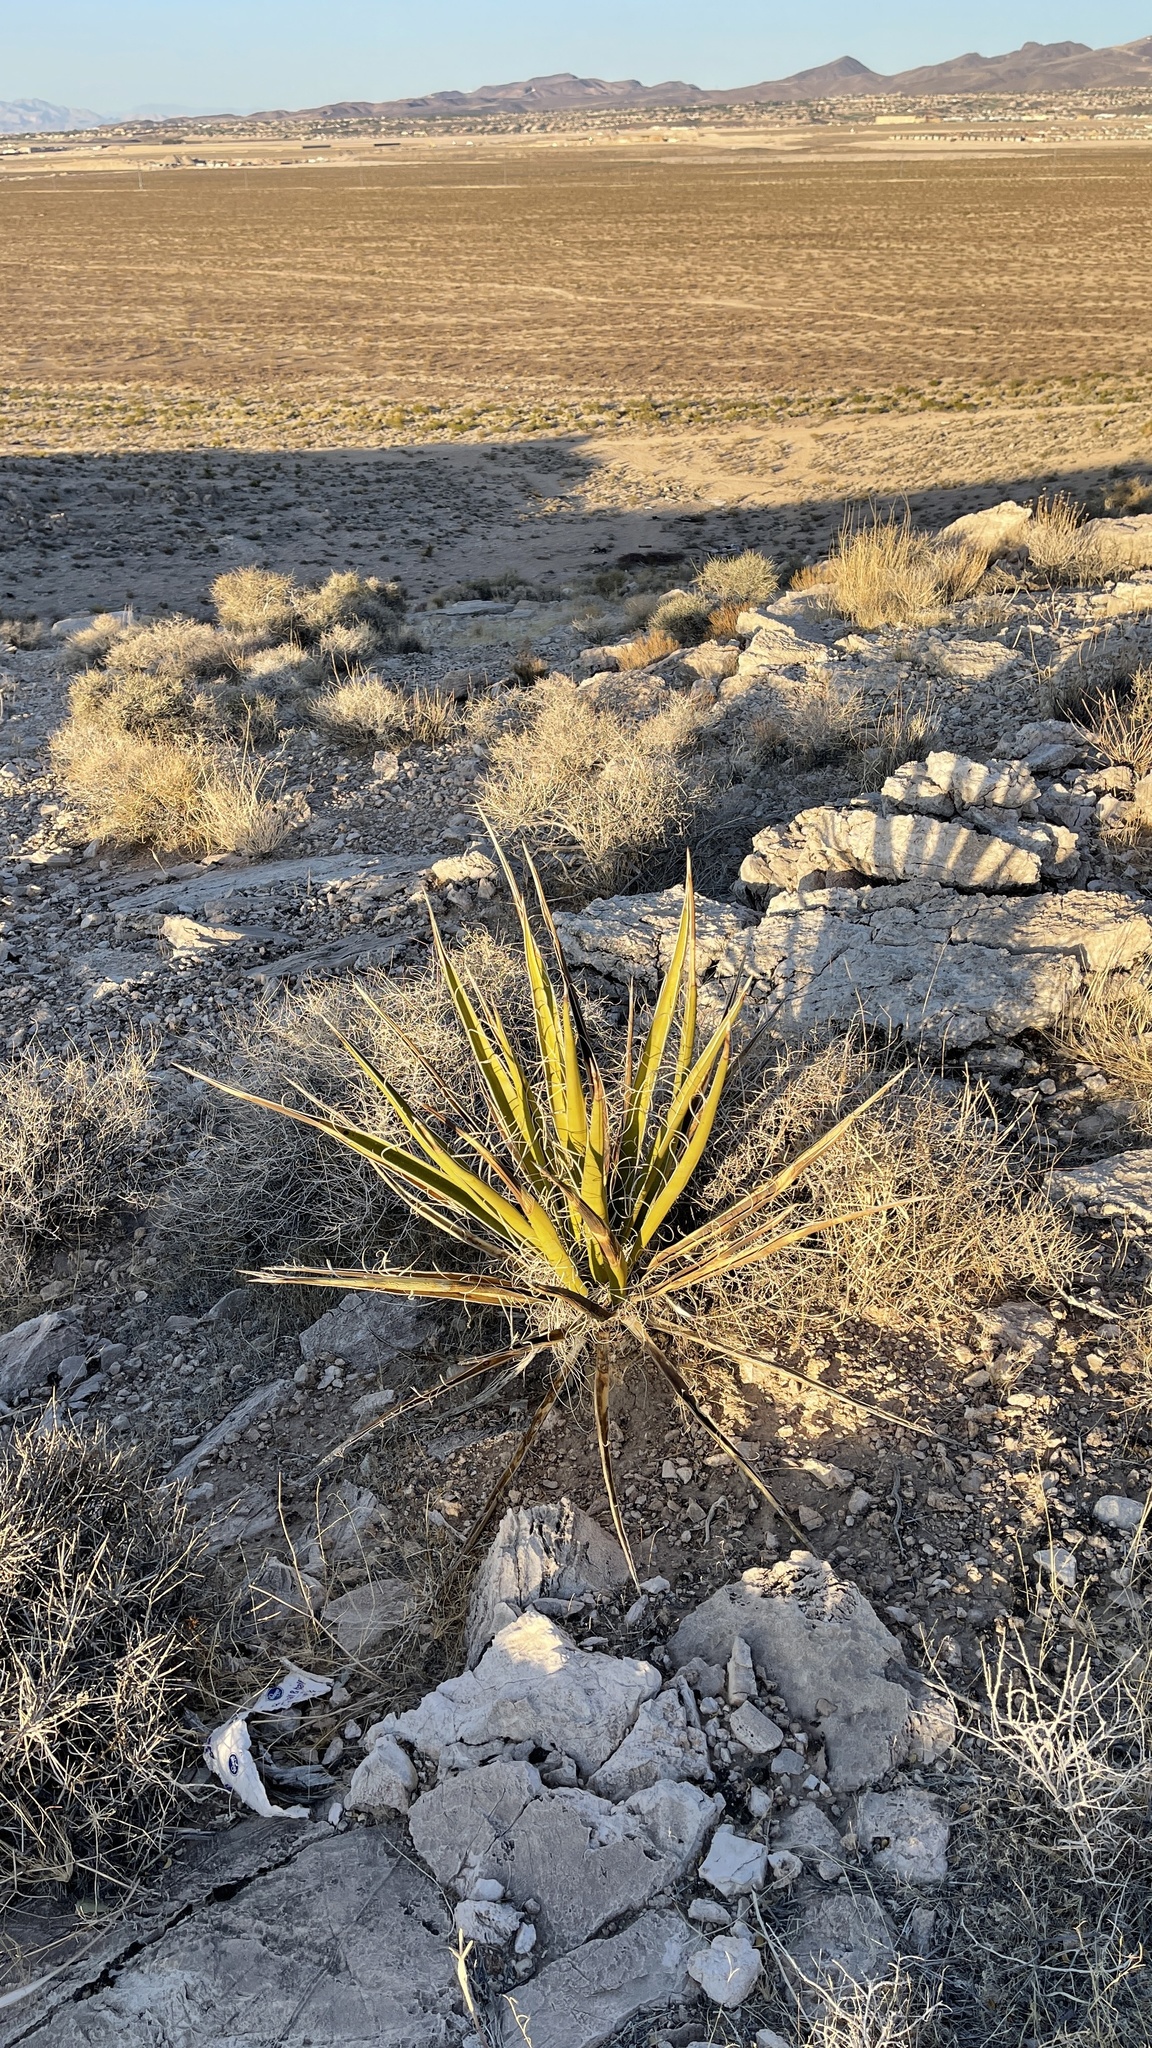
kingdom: Plantae
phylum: Tracheophyta
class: Liliopsida
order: Asparagales
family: Asparagaceae
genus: Yucca
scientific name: Yucca schidigera
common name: Mojave yucca
